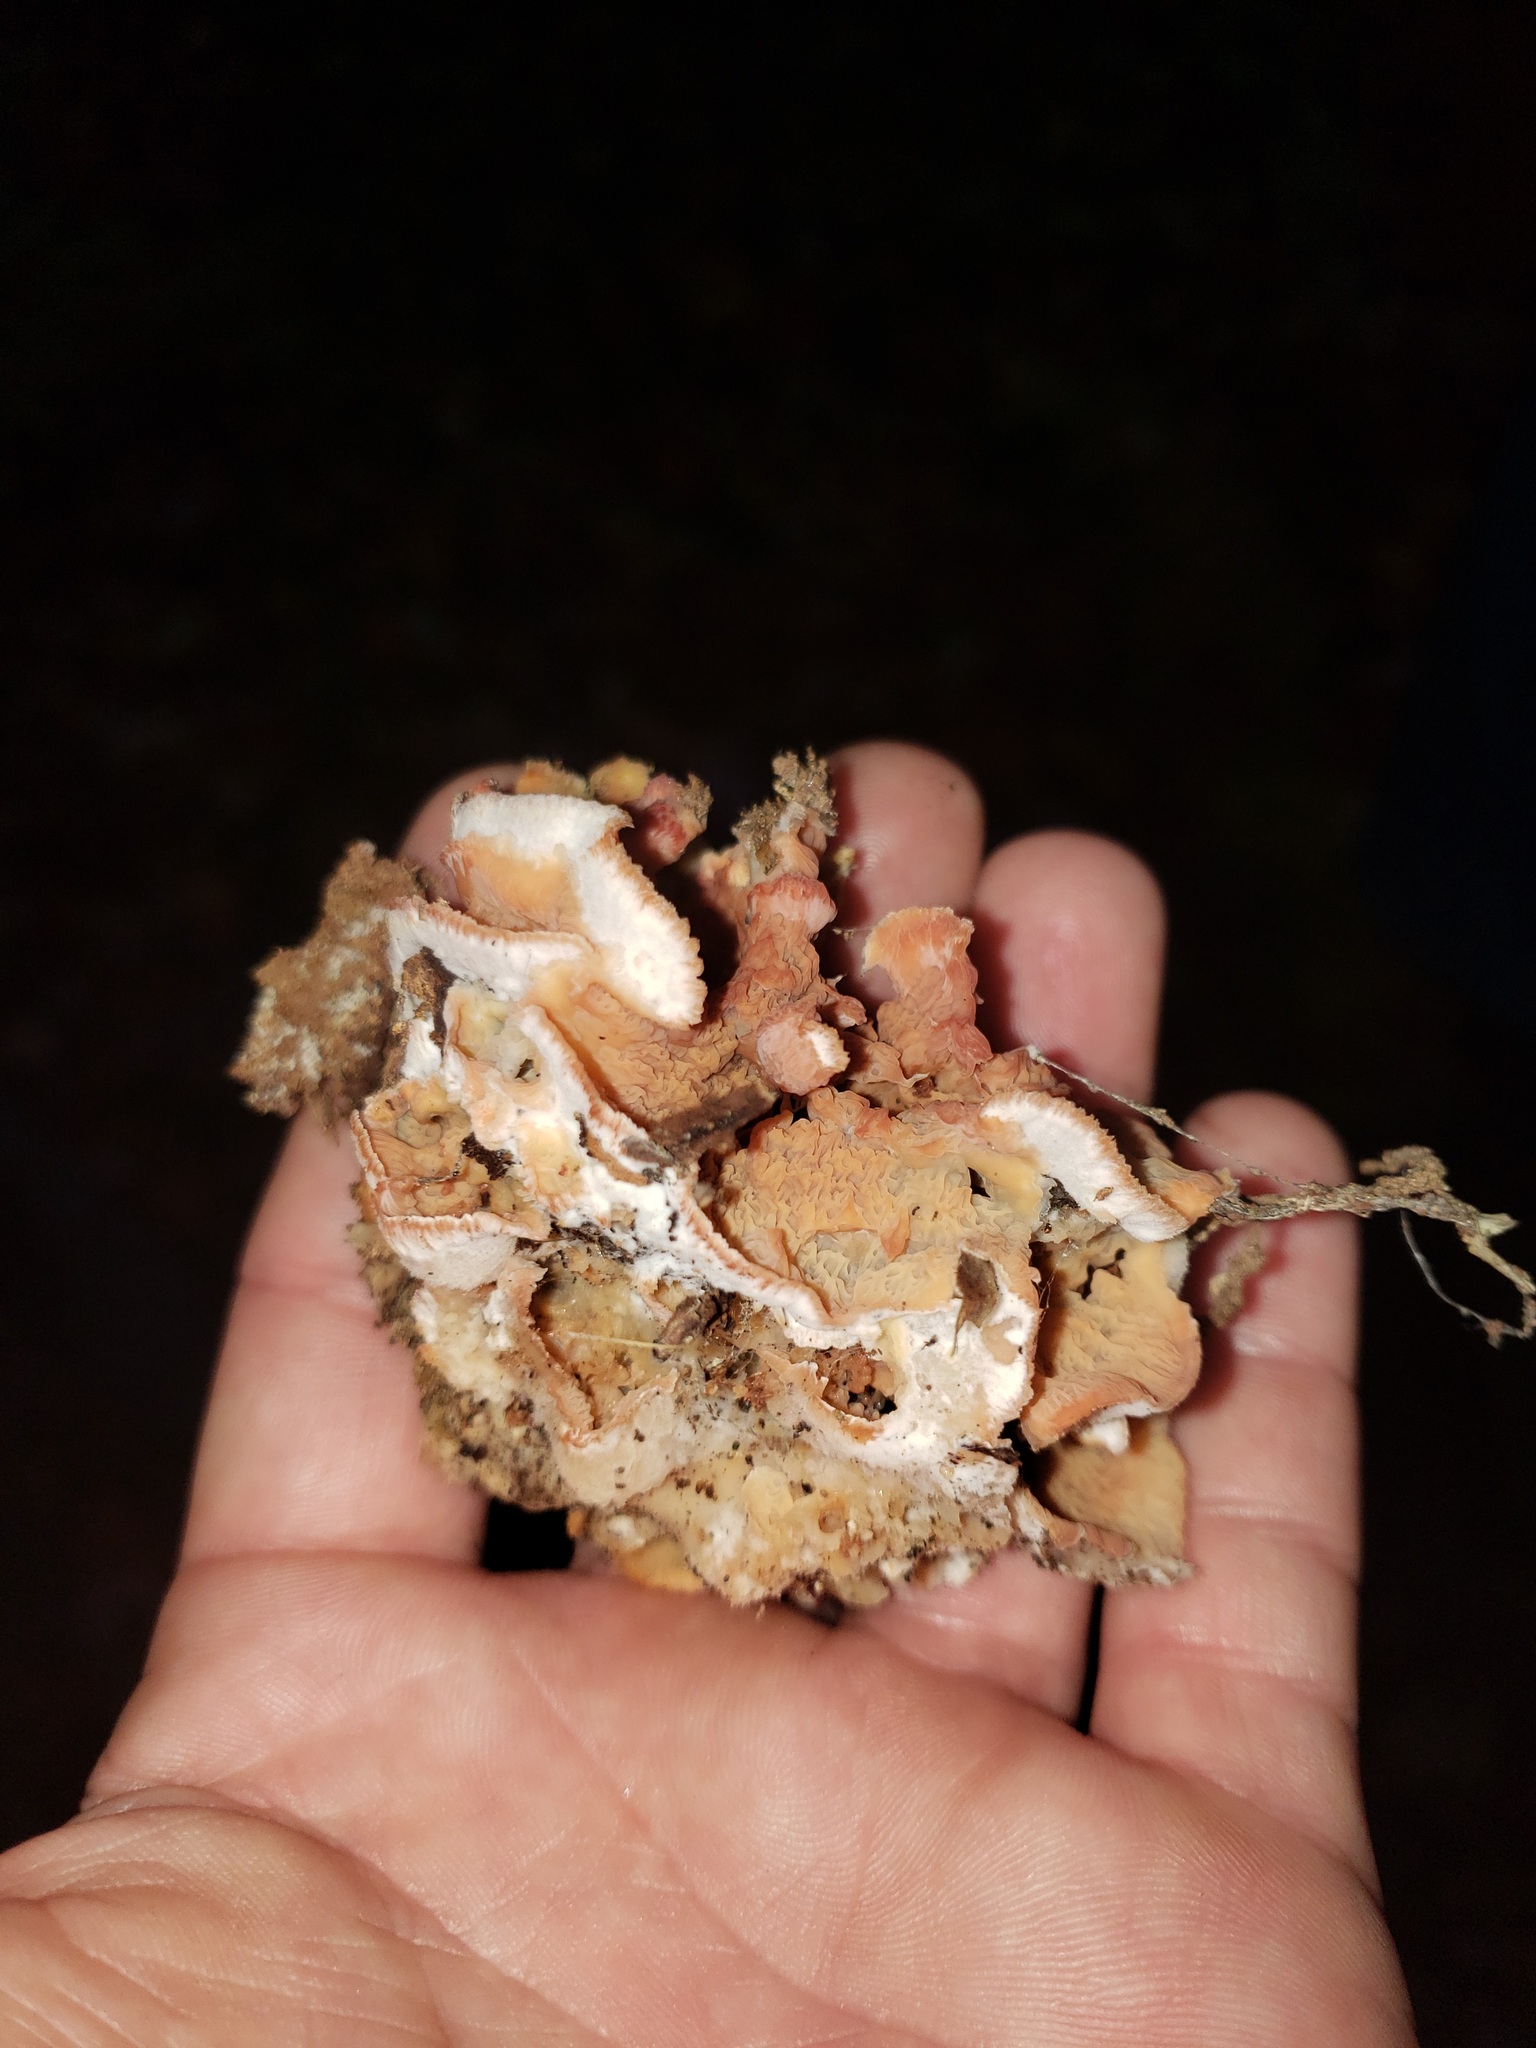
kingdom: Fungi
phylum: Basidiomycota
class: Agaricomycetes
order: Polyporales
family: Meruliaceae
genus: Phlebia
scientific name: Phlebia tremellosa
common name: Jelly rot
